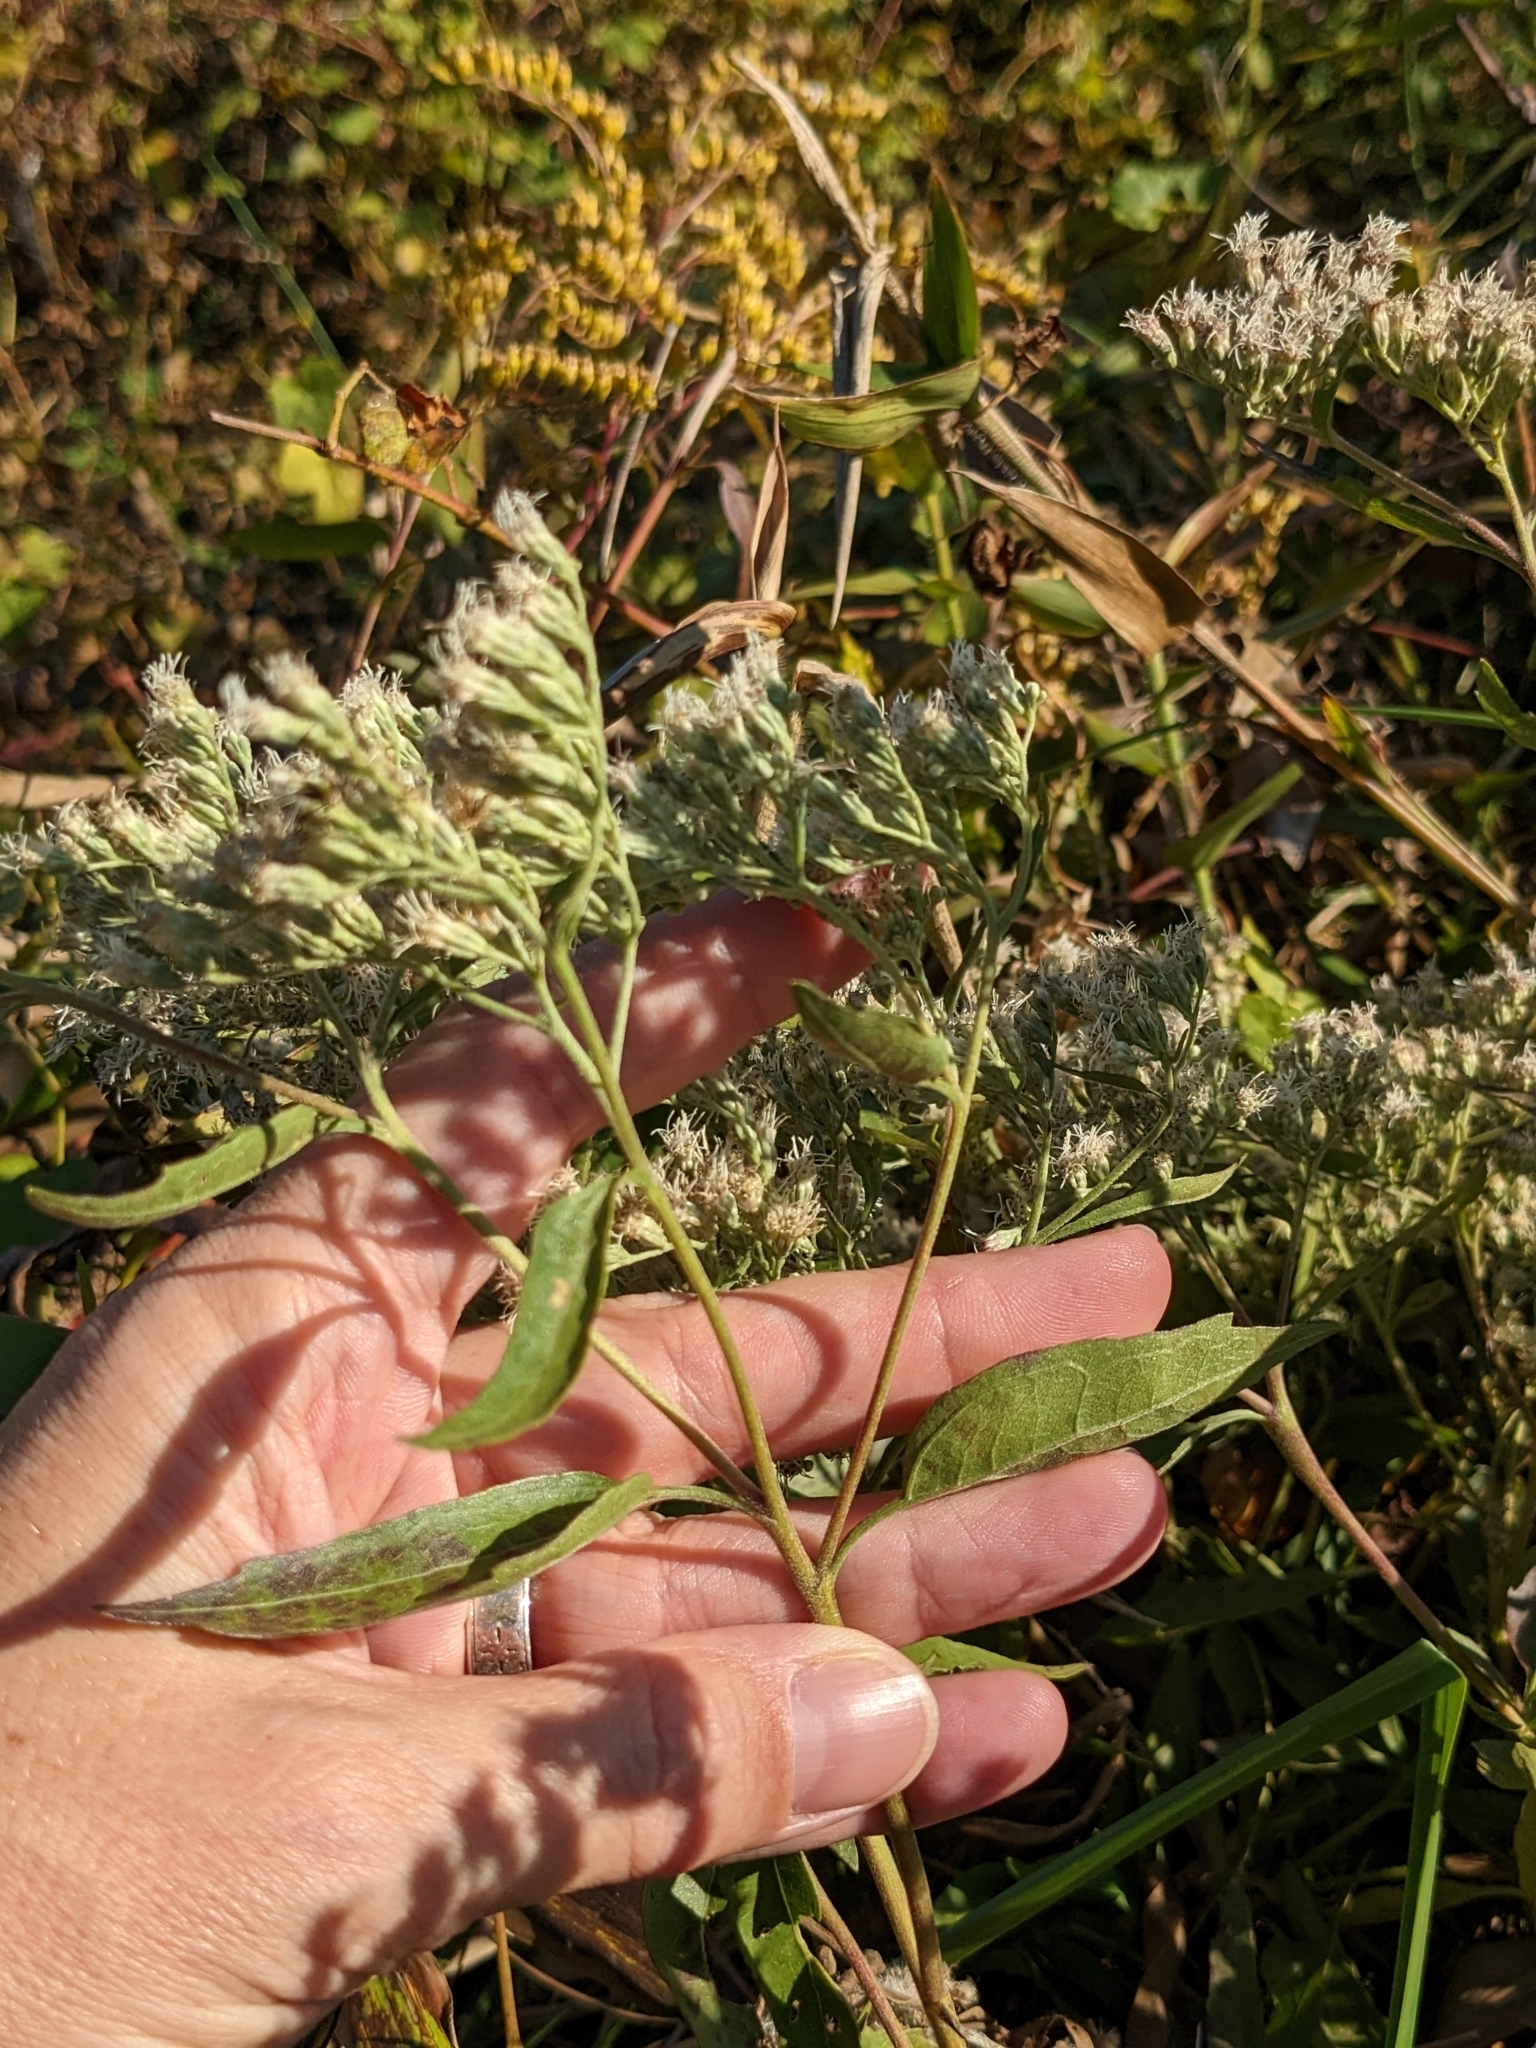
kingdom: Plantae
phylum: Tracheophyta
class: Magnoliopsida
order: Asterales
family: Asteraceae
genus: Eupatorium
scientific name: Eupatorium serotinum
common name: Late boneset
